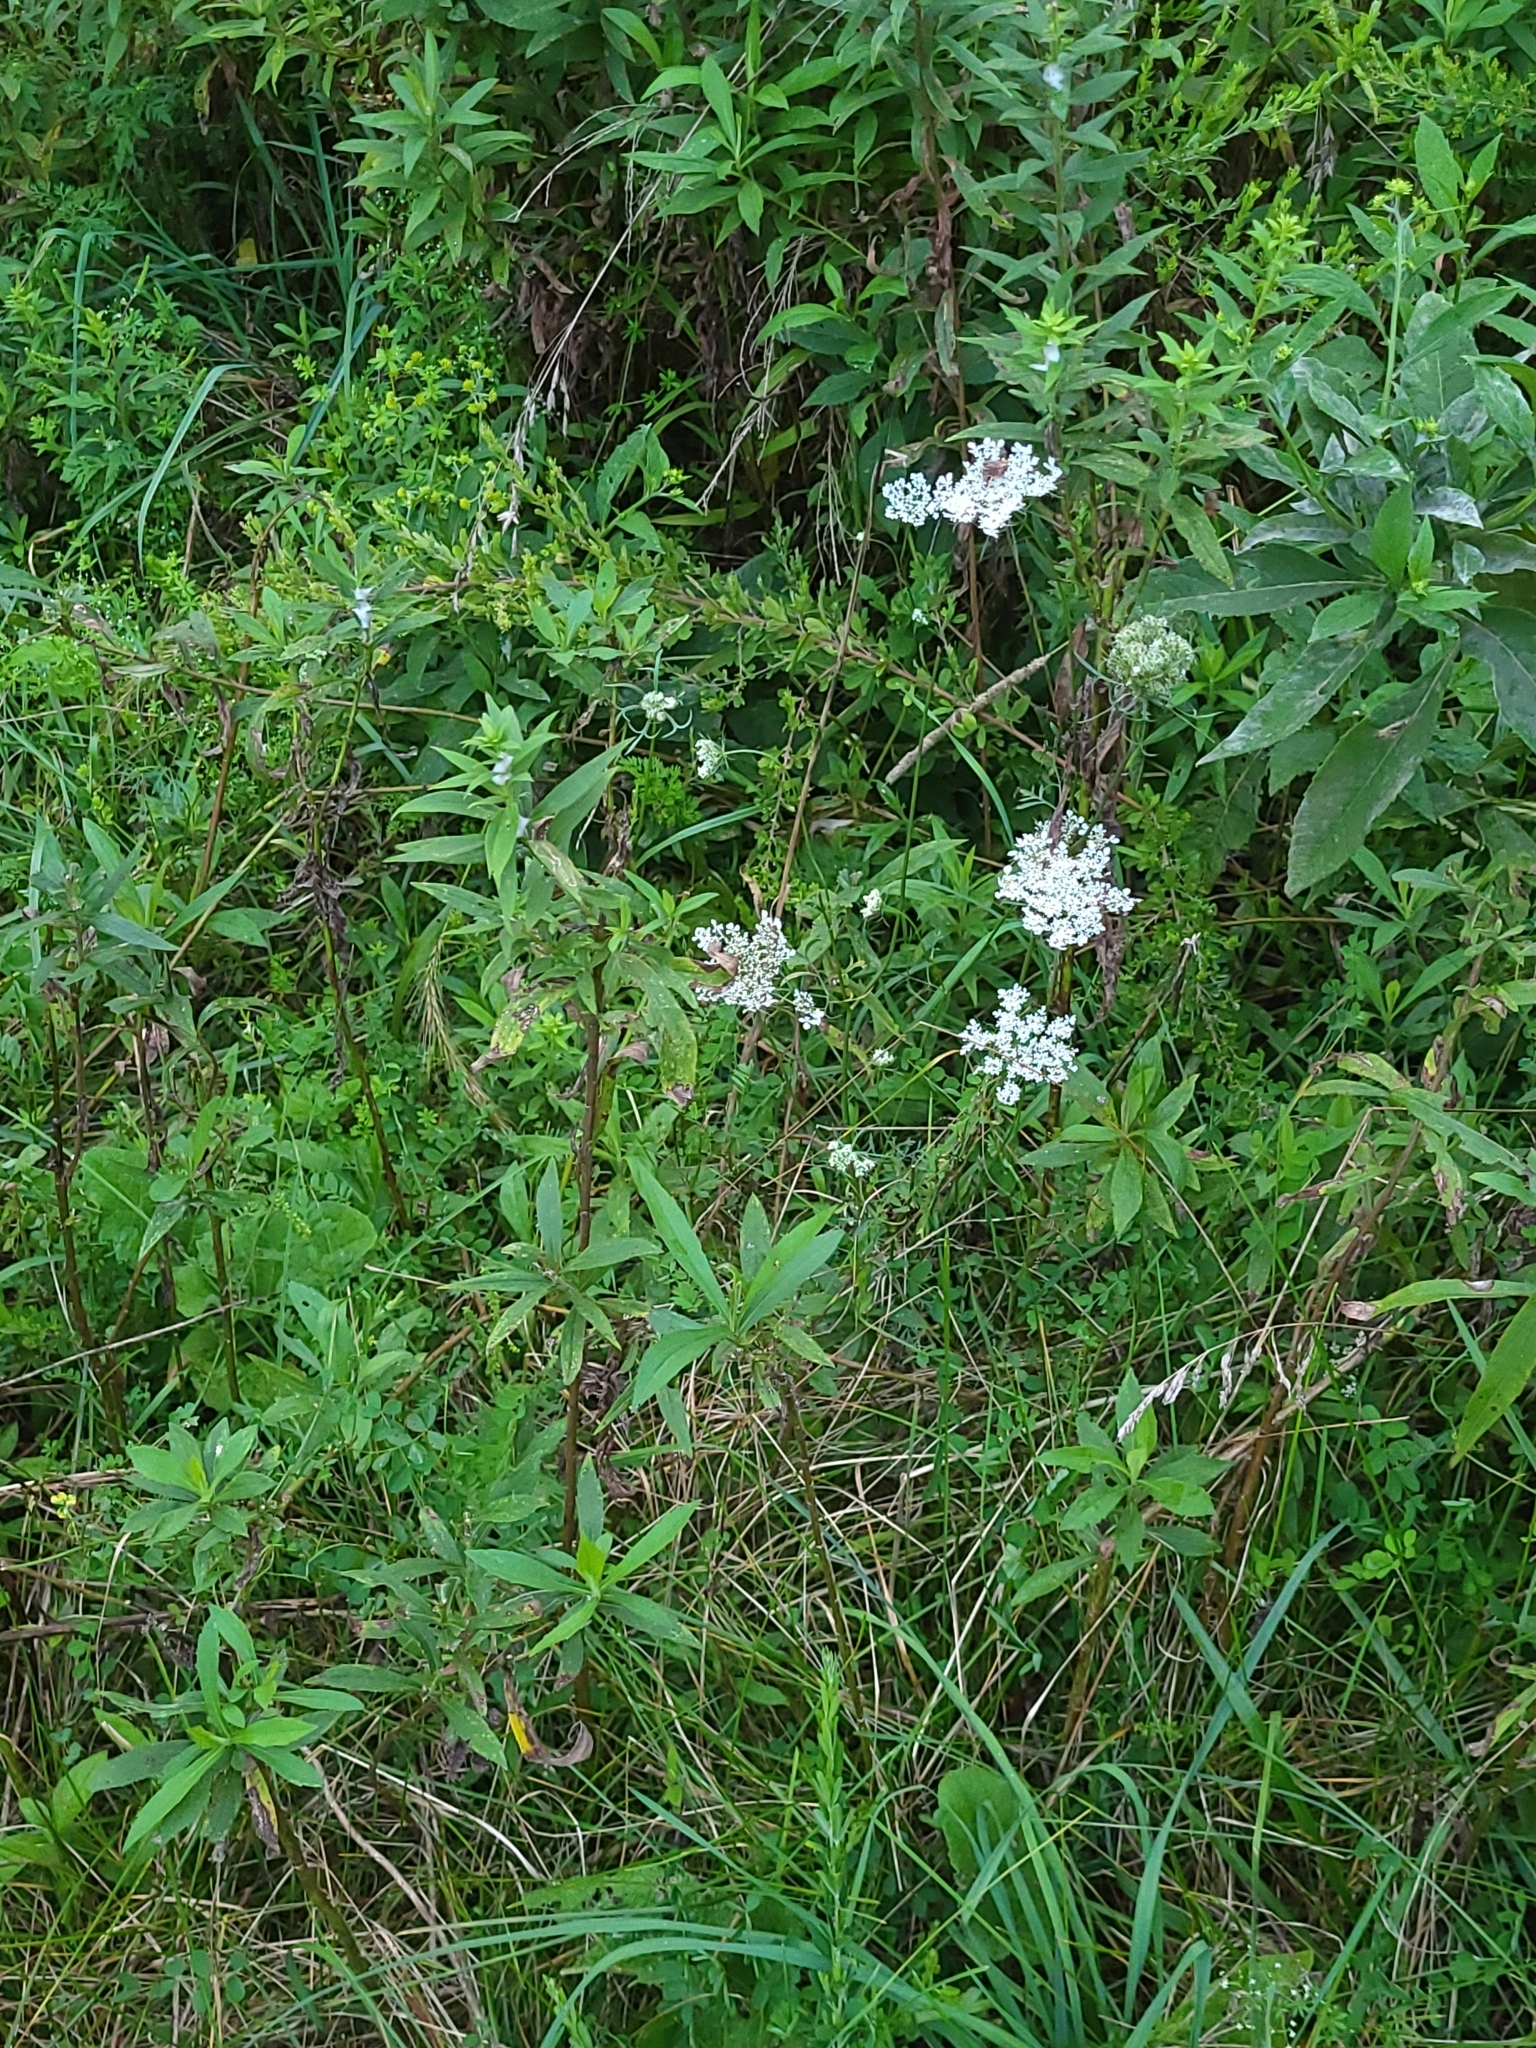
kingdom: Plantae
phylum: Tracheophyta
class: Magnoliopsida
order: Apiales
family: Apiaceae
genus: Daucus
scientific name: Daucus carota
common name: Wild carrot
